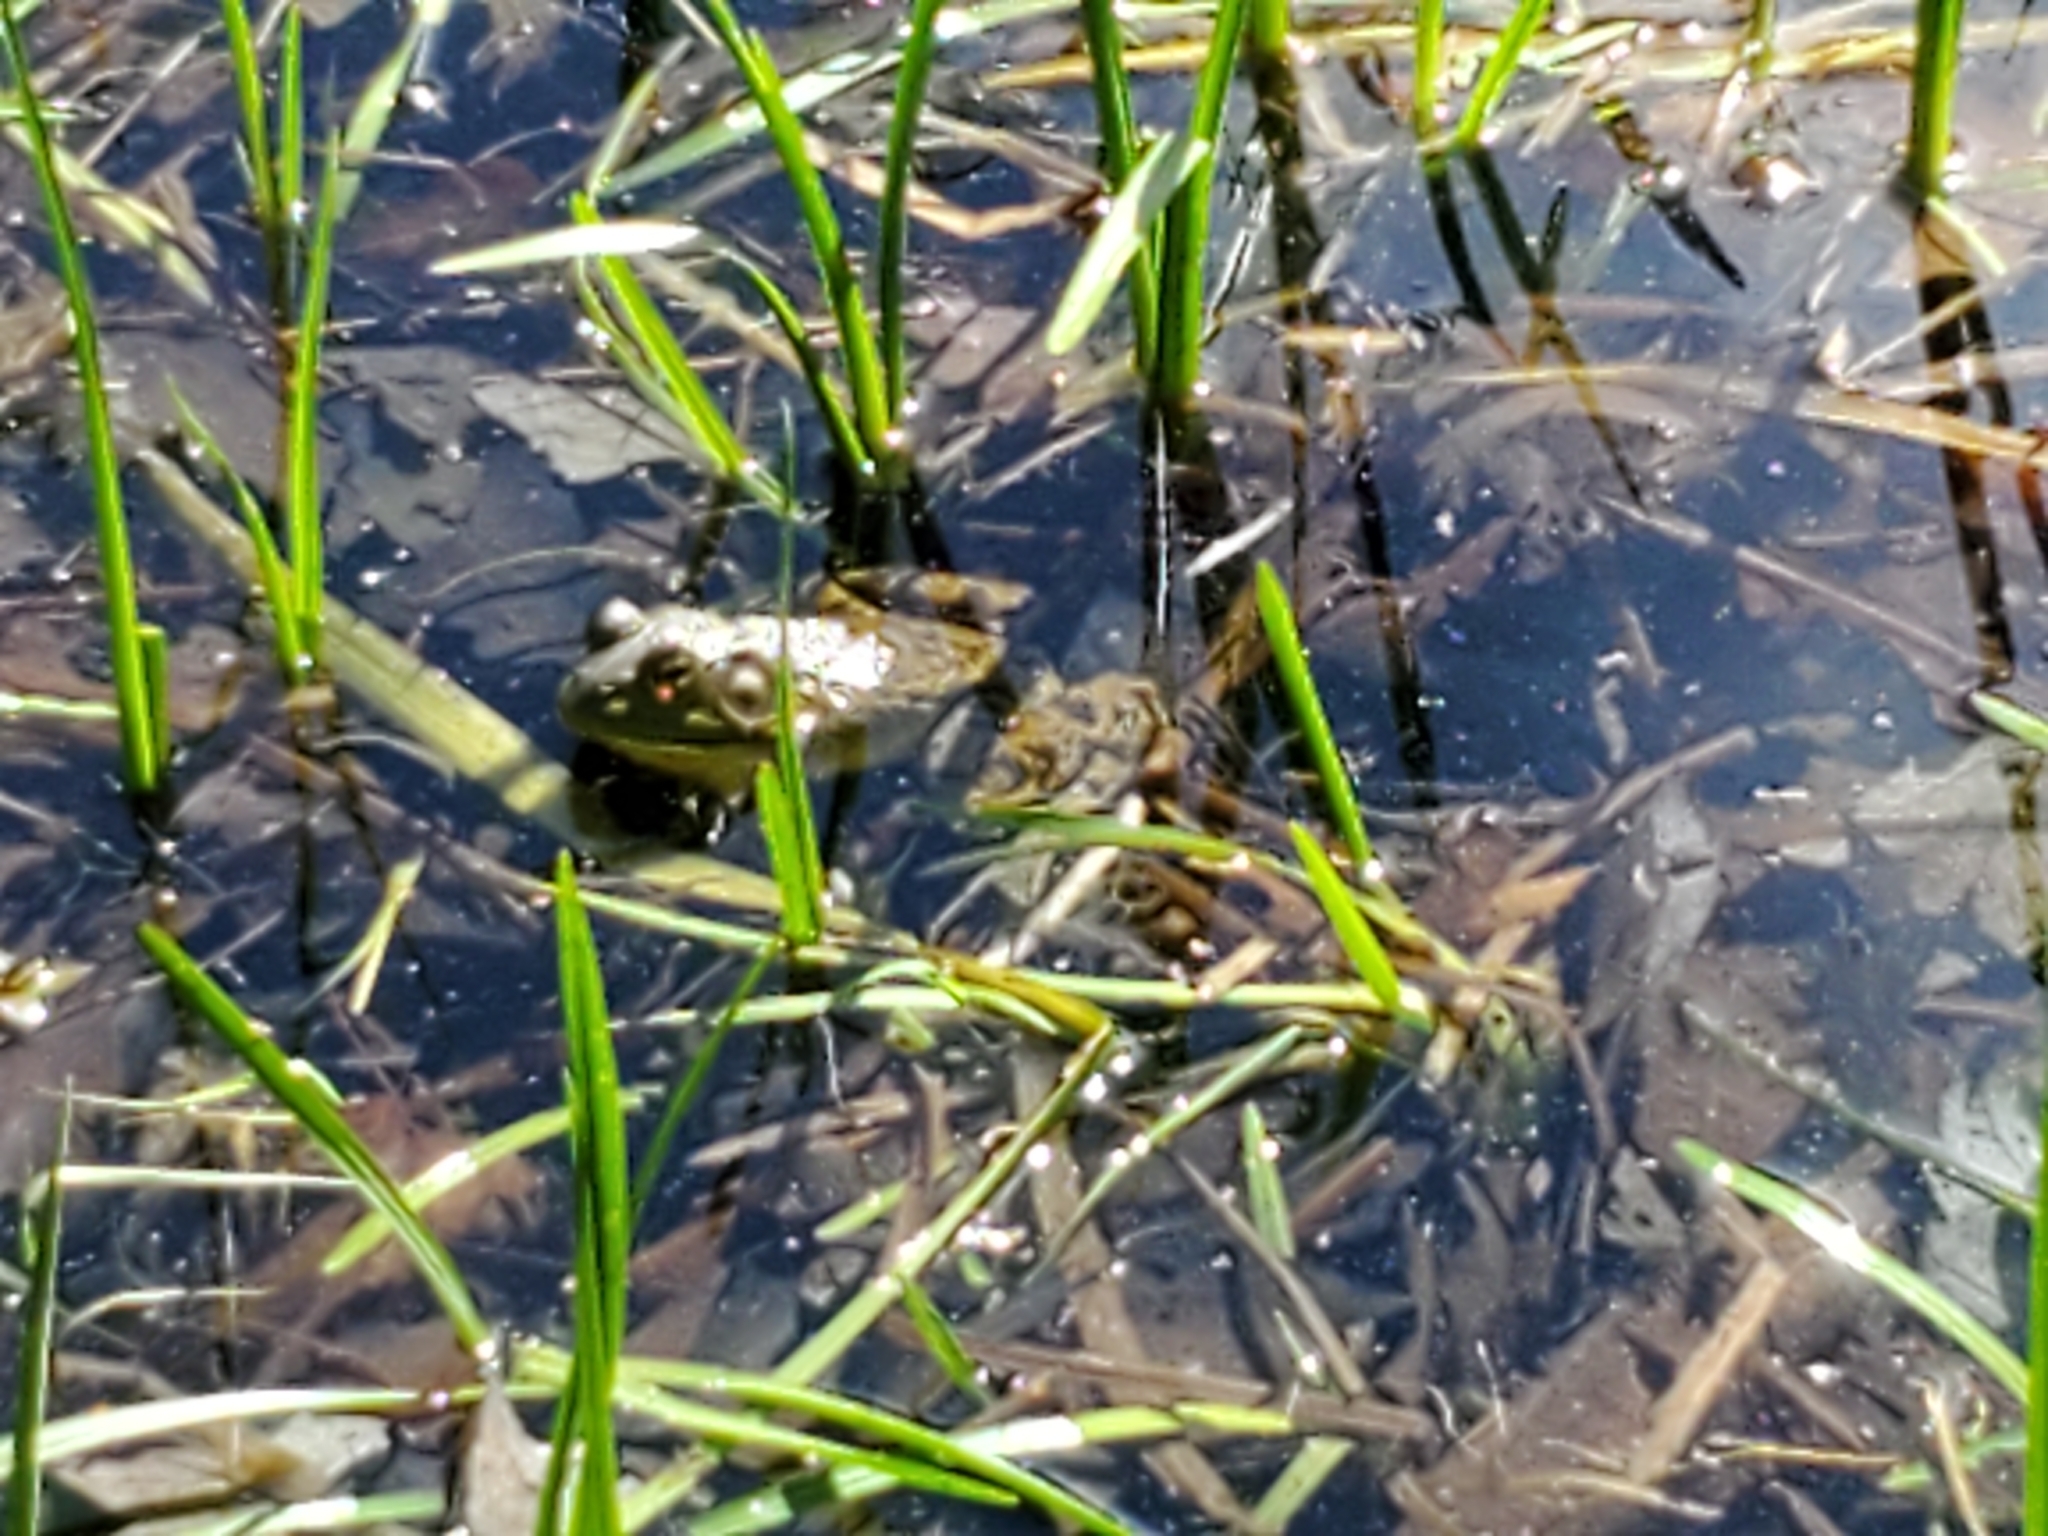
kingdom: Animalia
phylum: Chordata
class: Amphibia
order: Anura
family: Ranidae
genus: Lithobates
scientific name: Lithobates catesbeianus
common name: American bullfrog
